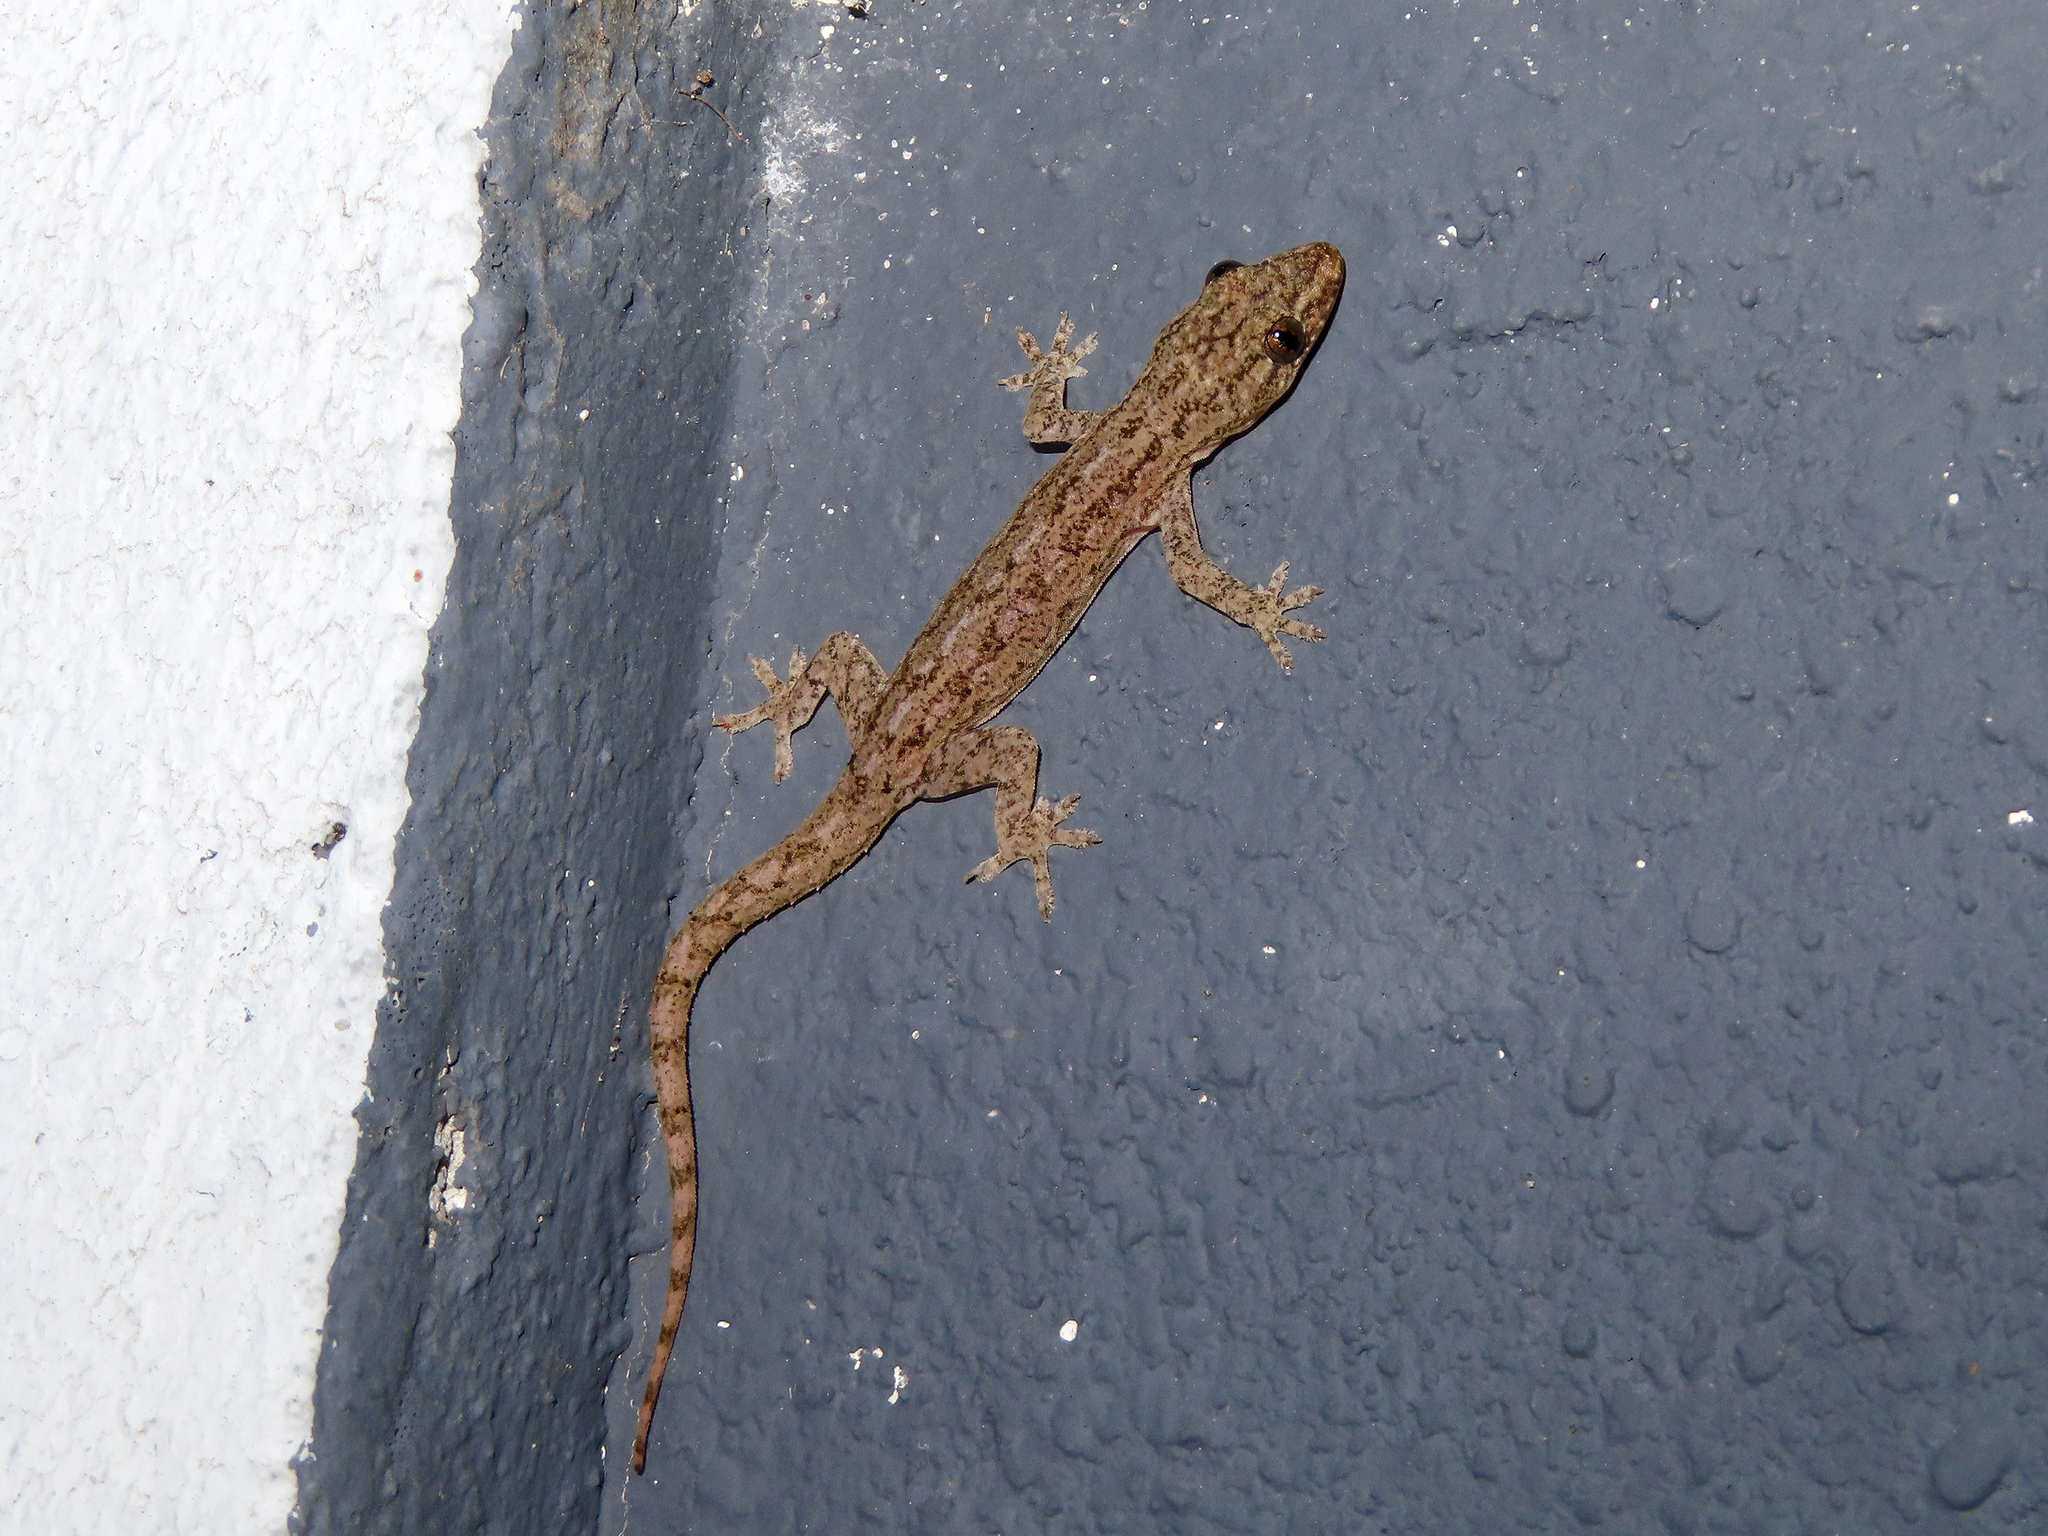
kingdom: Animalia
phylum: Chordata
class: Squamata
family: Gekkonidae
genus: Hemidactylus
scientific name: Hemidactylus frenatus
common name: Common house gecko
